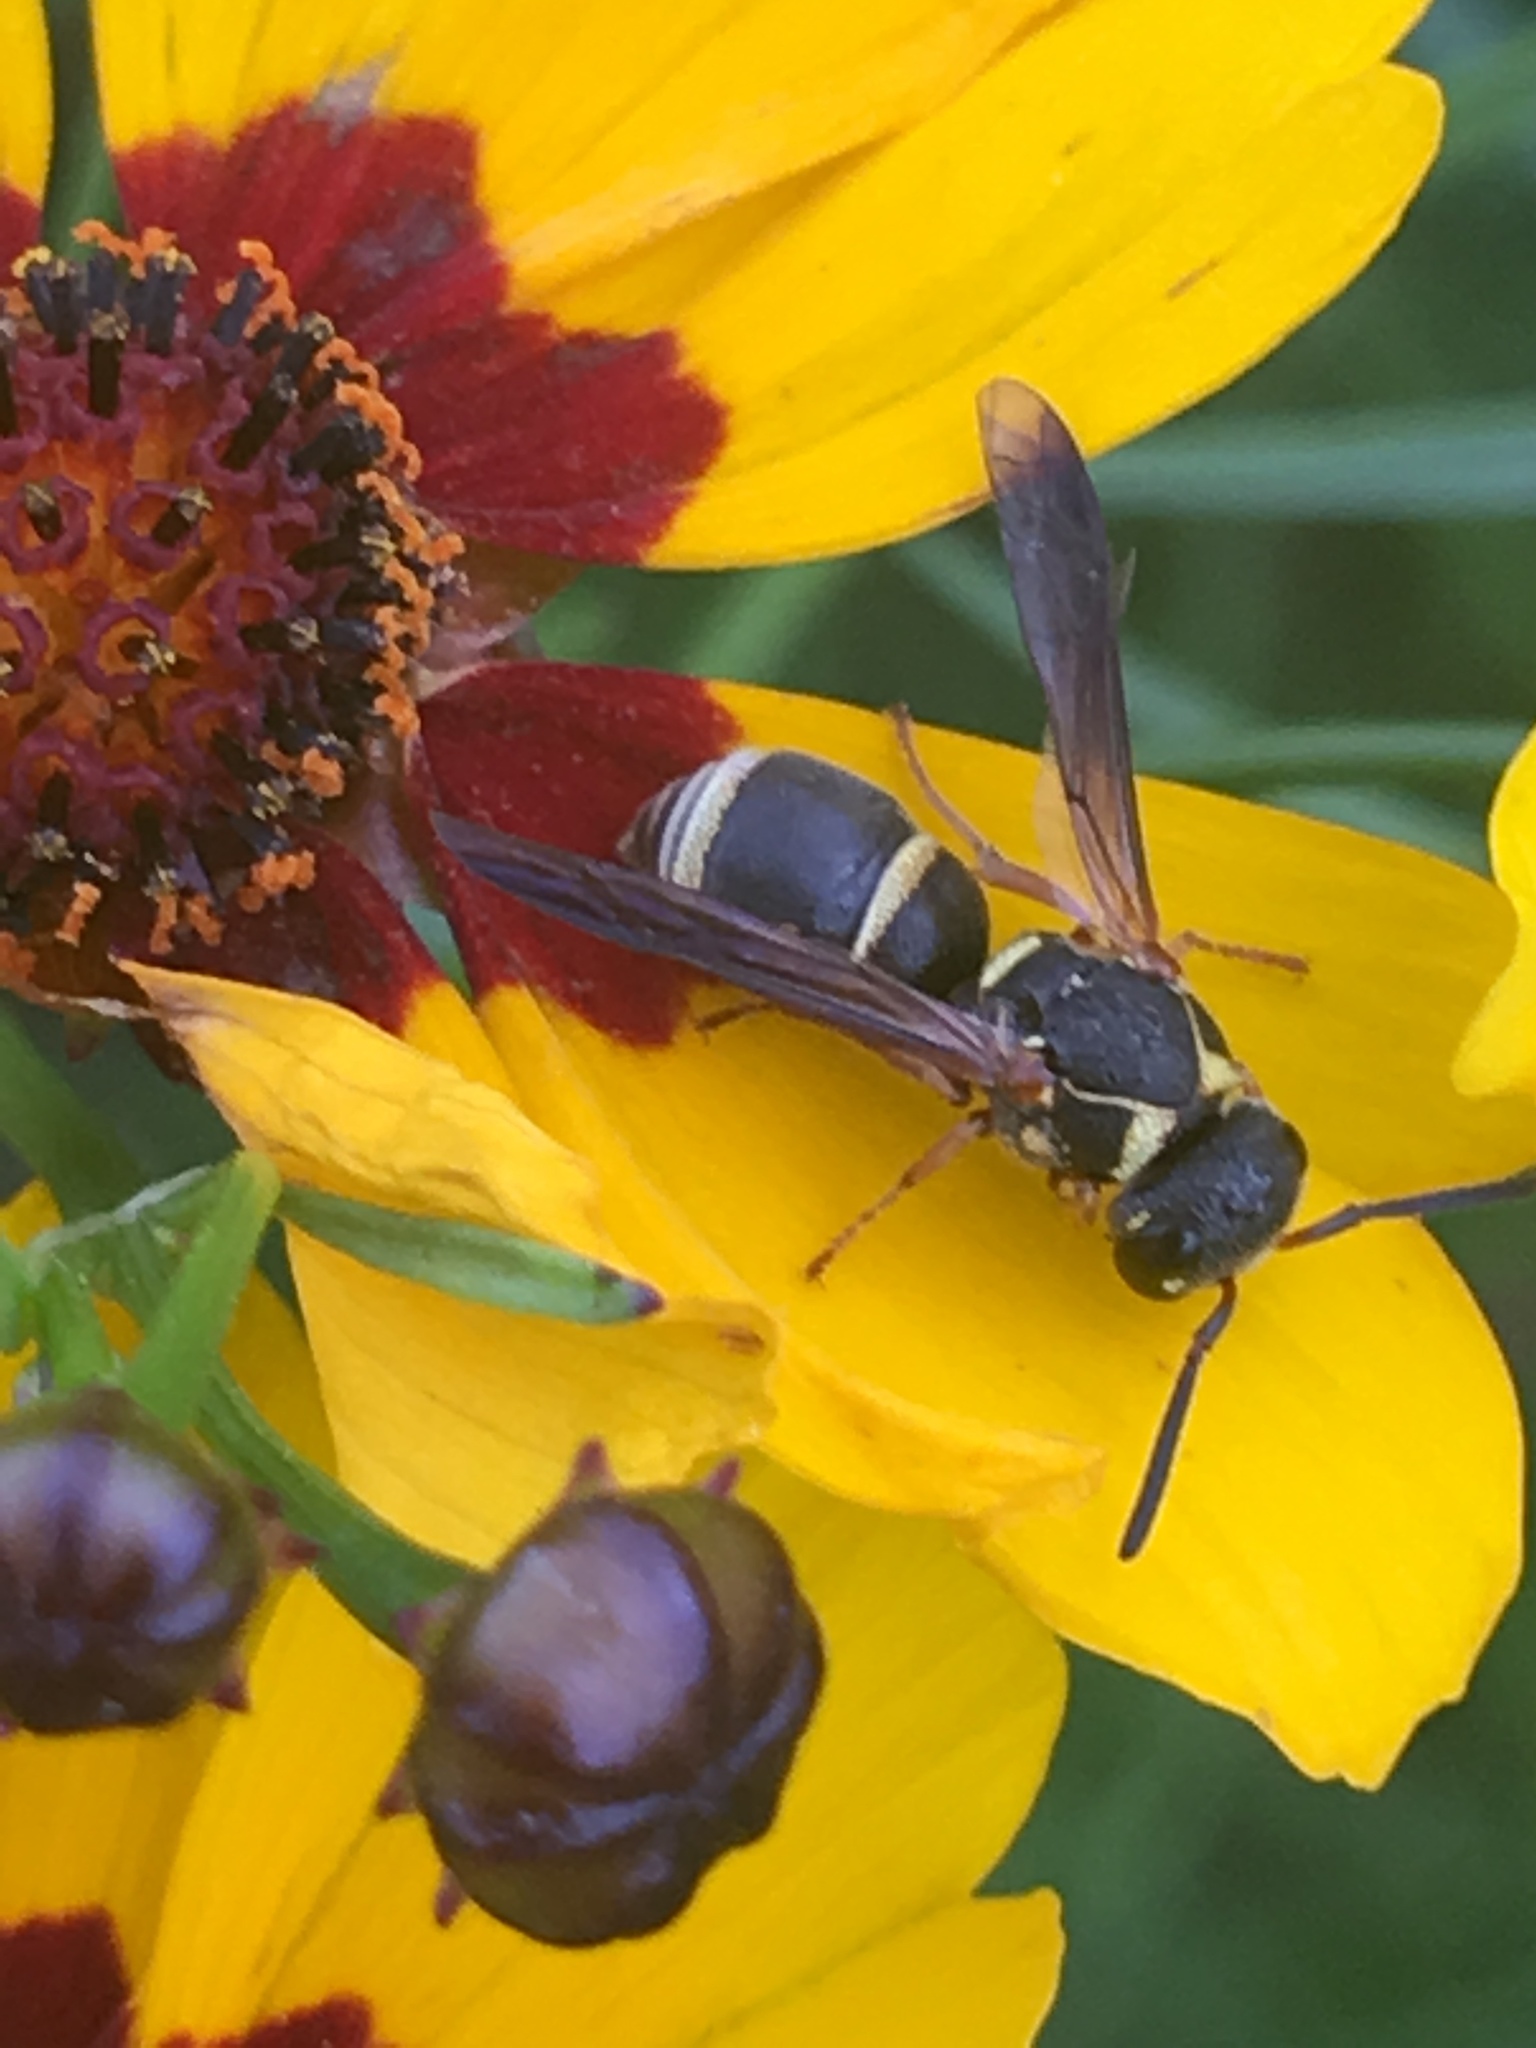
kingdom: Animalia
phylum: Arthropoda
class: Insecta
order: Hymenoptera
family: Eumenidae
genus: Stenodynerus
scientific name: Stenodynerus
